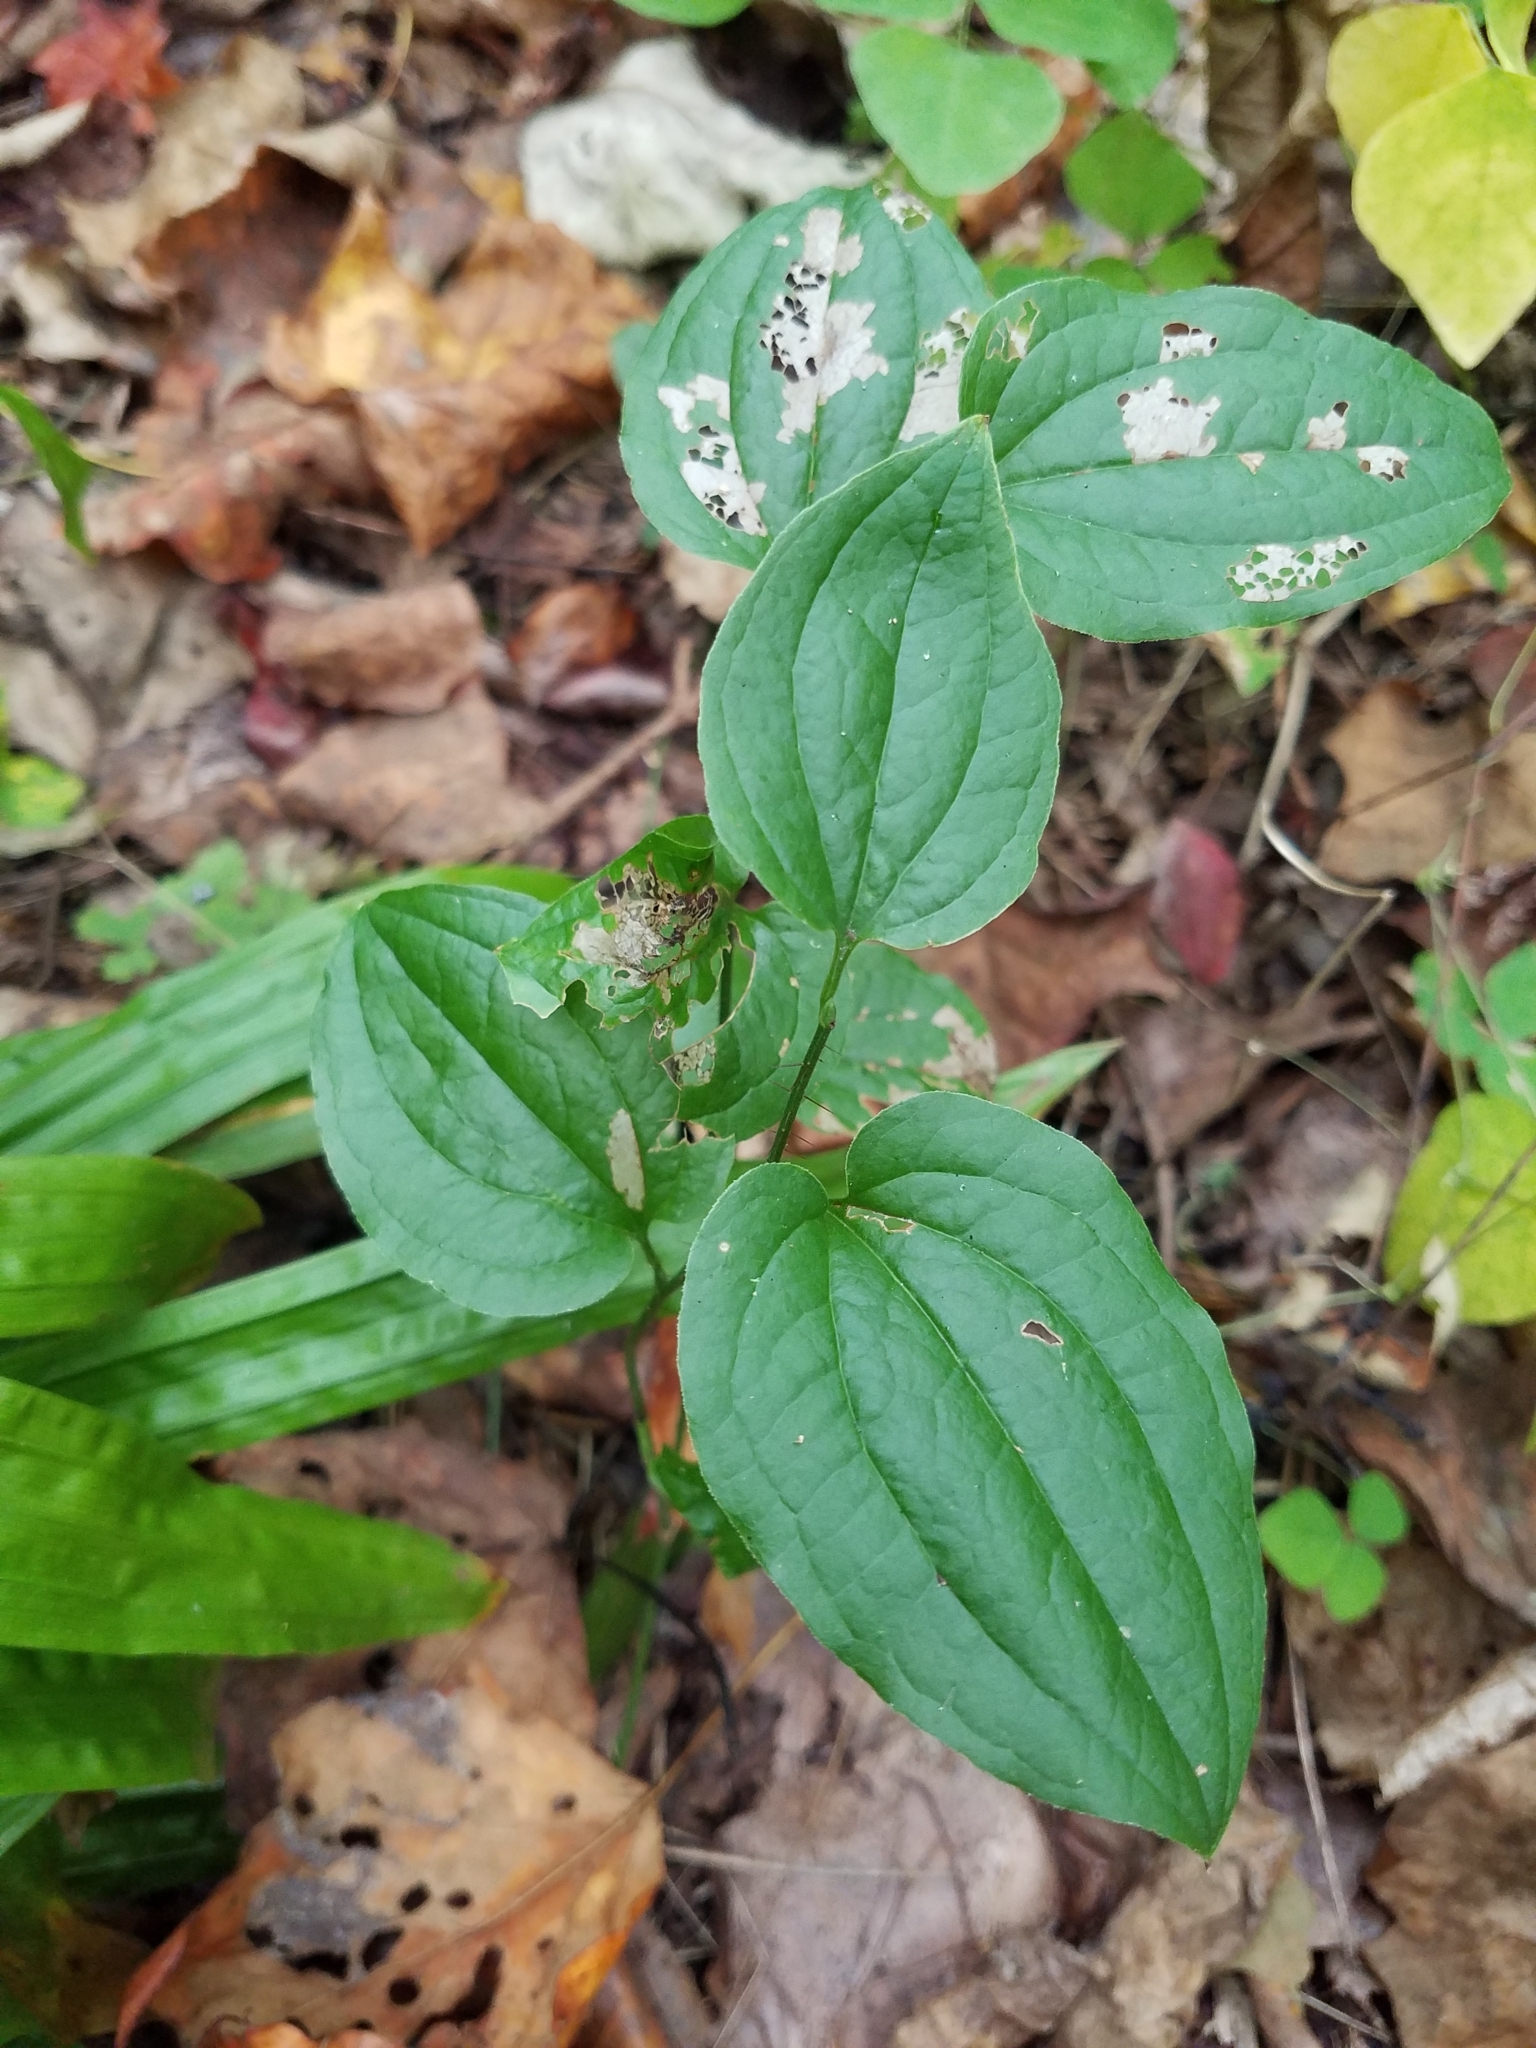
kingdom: Plantae
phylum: Tracheophyta
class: Liliopsida
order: Liliales
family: Smilacaceae
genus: Smilax
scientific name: Smilax tamnoides
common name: Hellfetter
